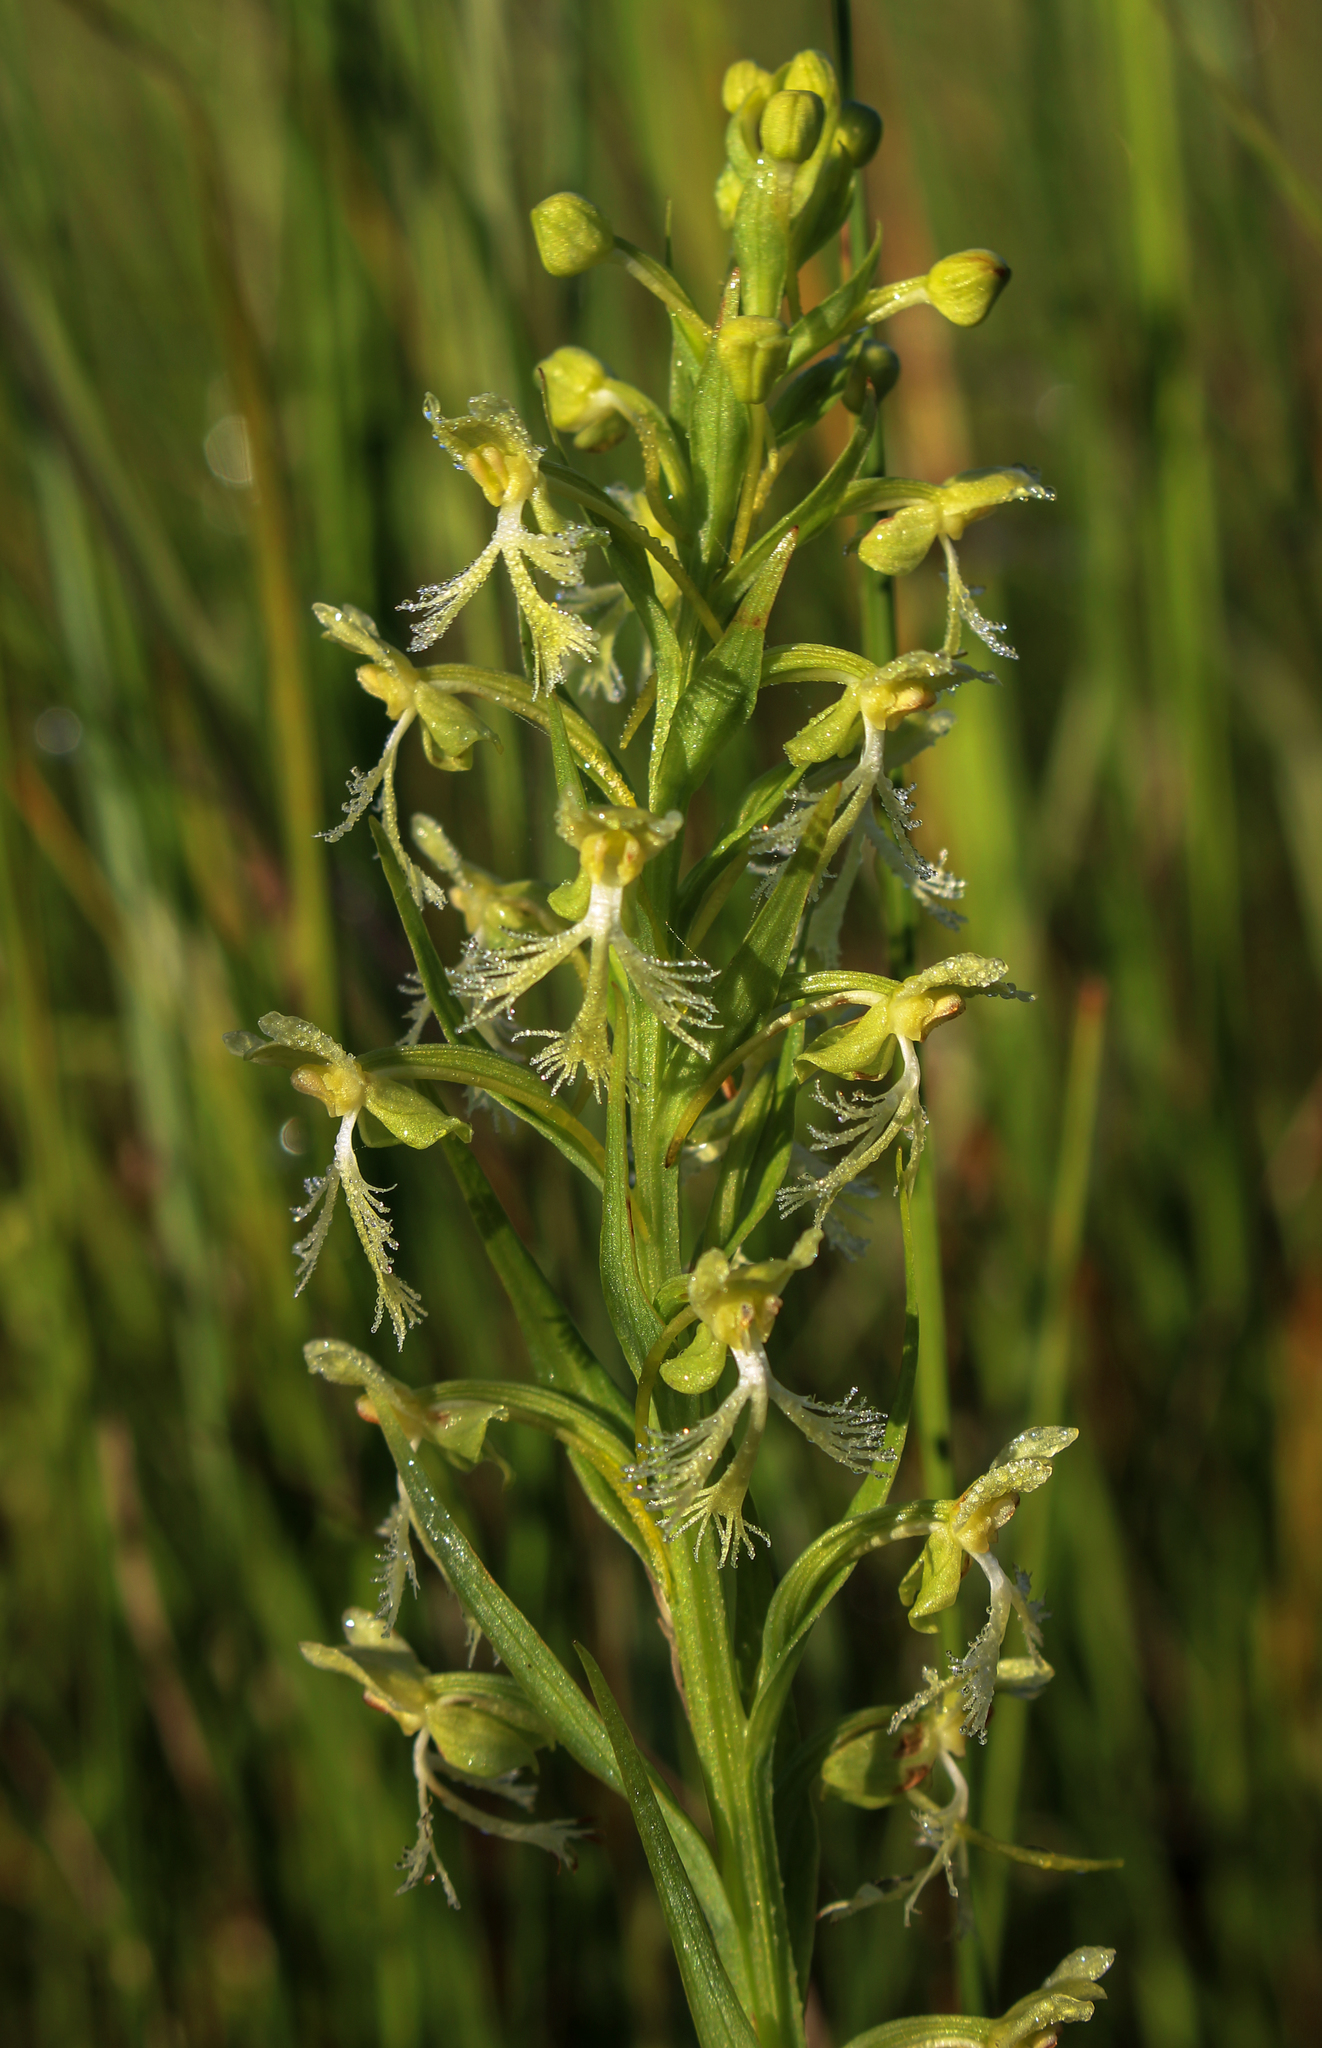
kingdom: Plantae
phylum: Tracheophyta
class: Liliopsida
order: Asparagales
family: Orchidaceae
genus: Platanthera
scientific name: Platanthera lacera
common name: Green fringed orchid
